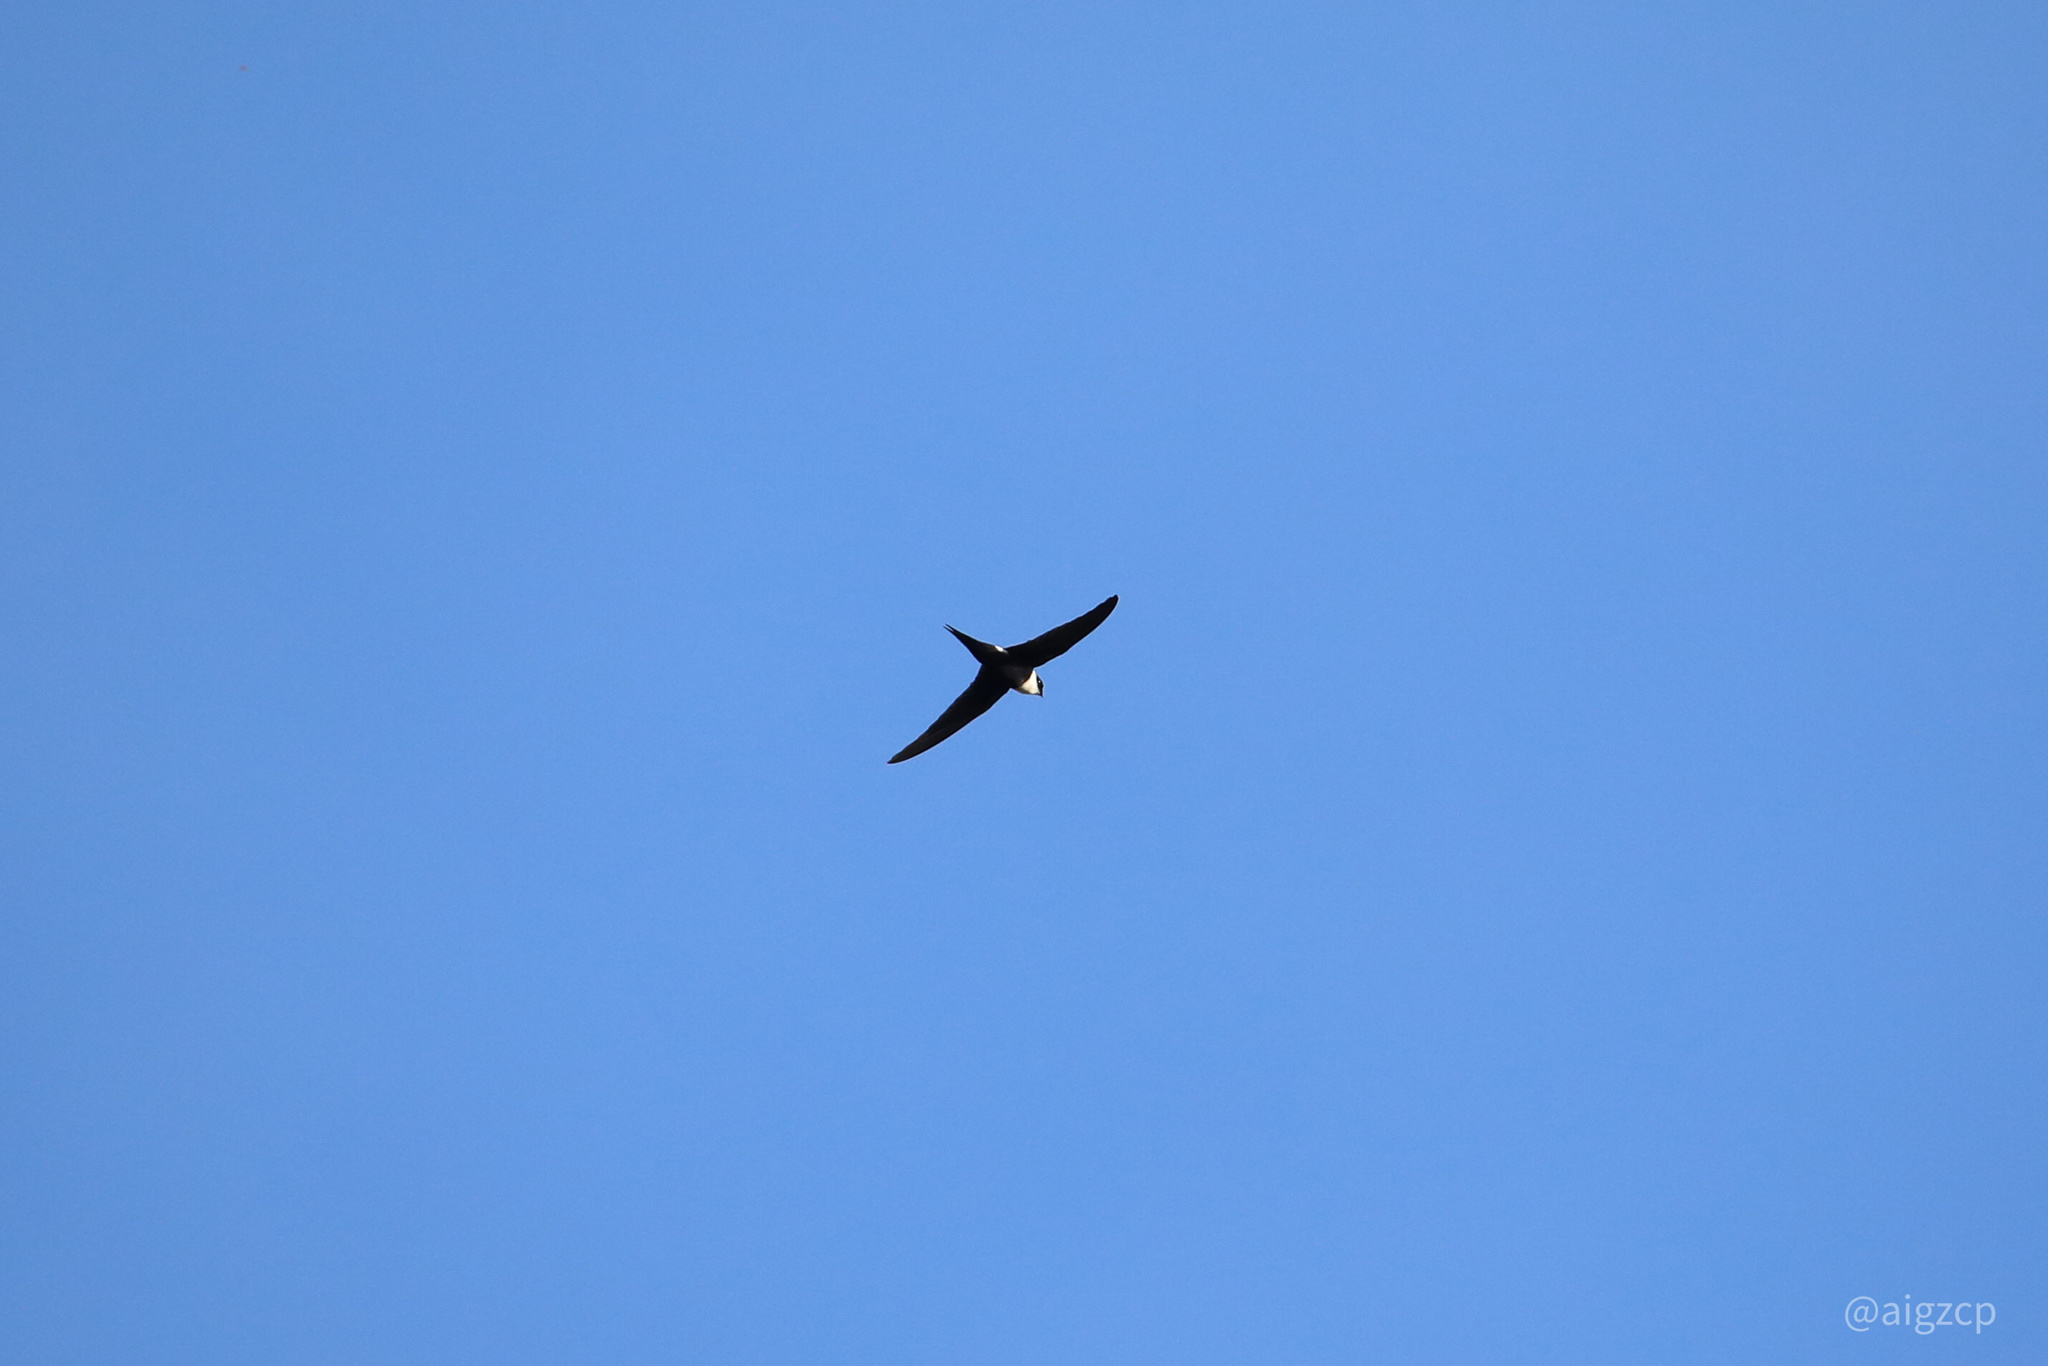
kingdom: Animalia
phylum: Chordata
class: Aves
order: Apodiformes
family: Apodidae
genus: Panyptila
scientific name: Panyptila cayennensis
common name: Lesser swallow-tailed swift
